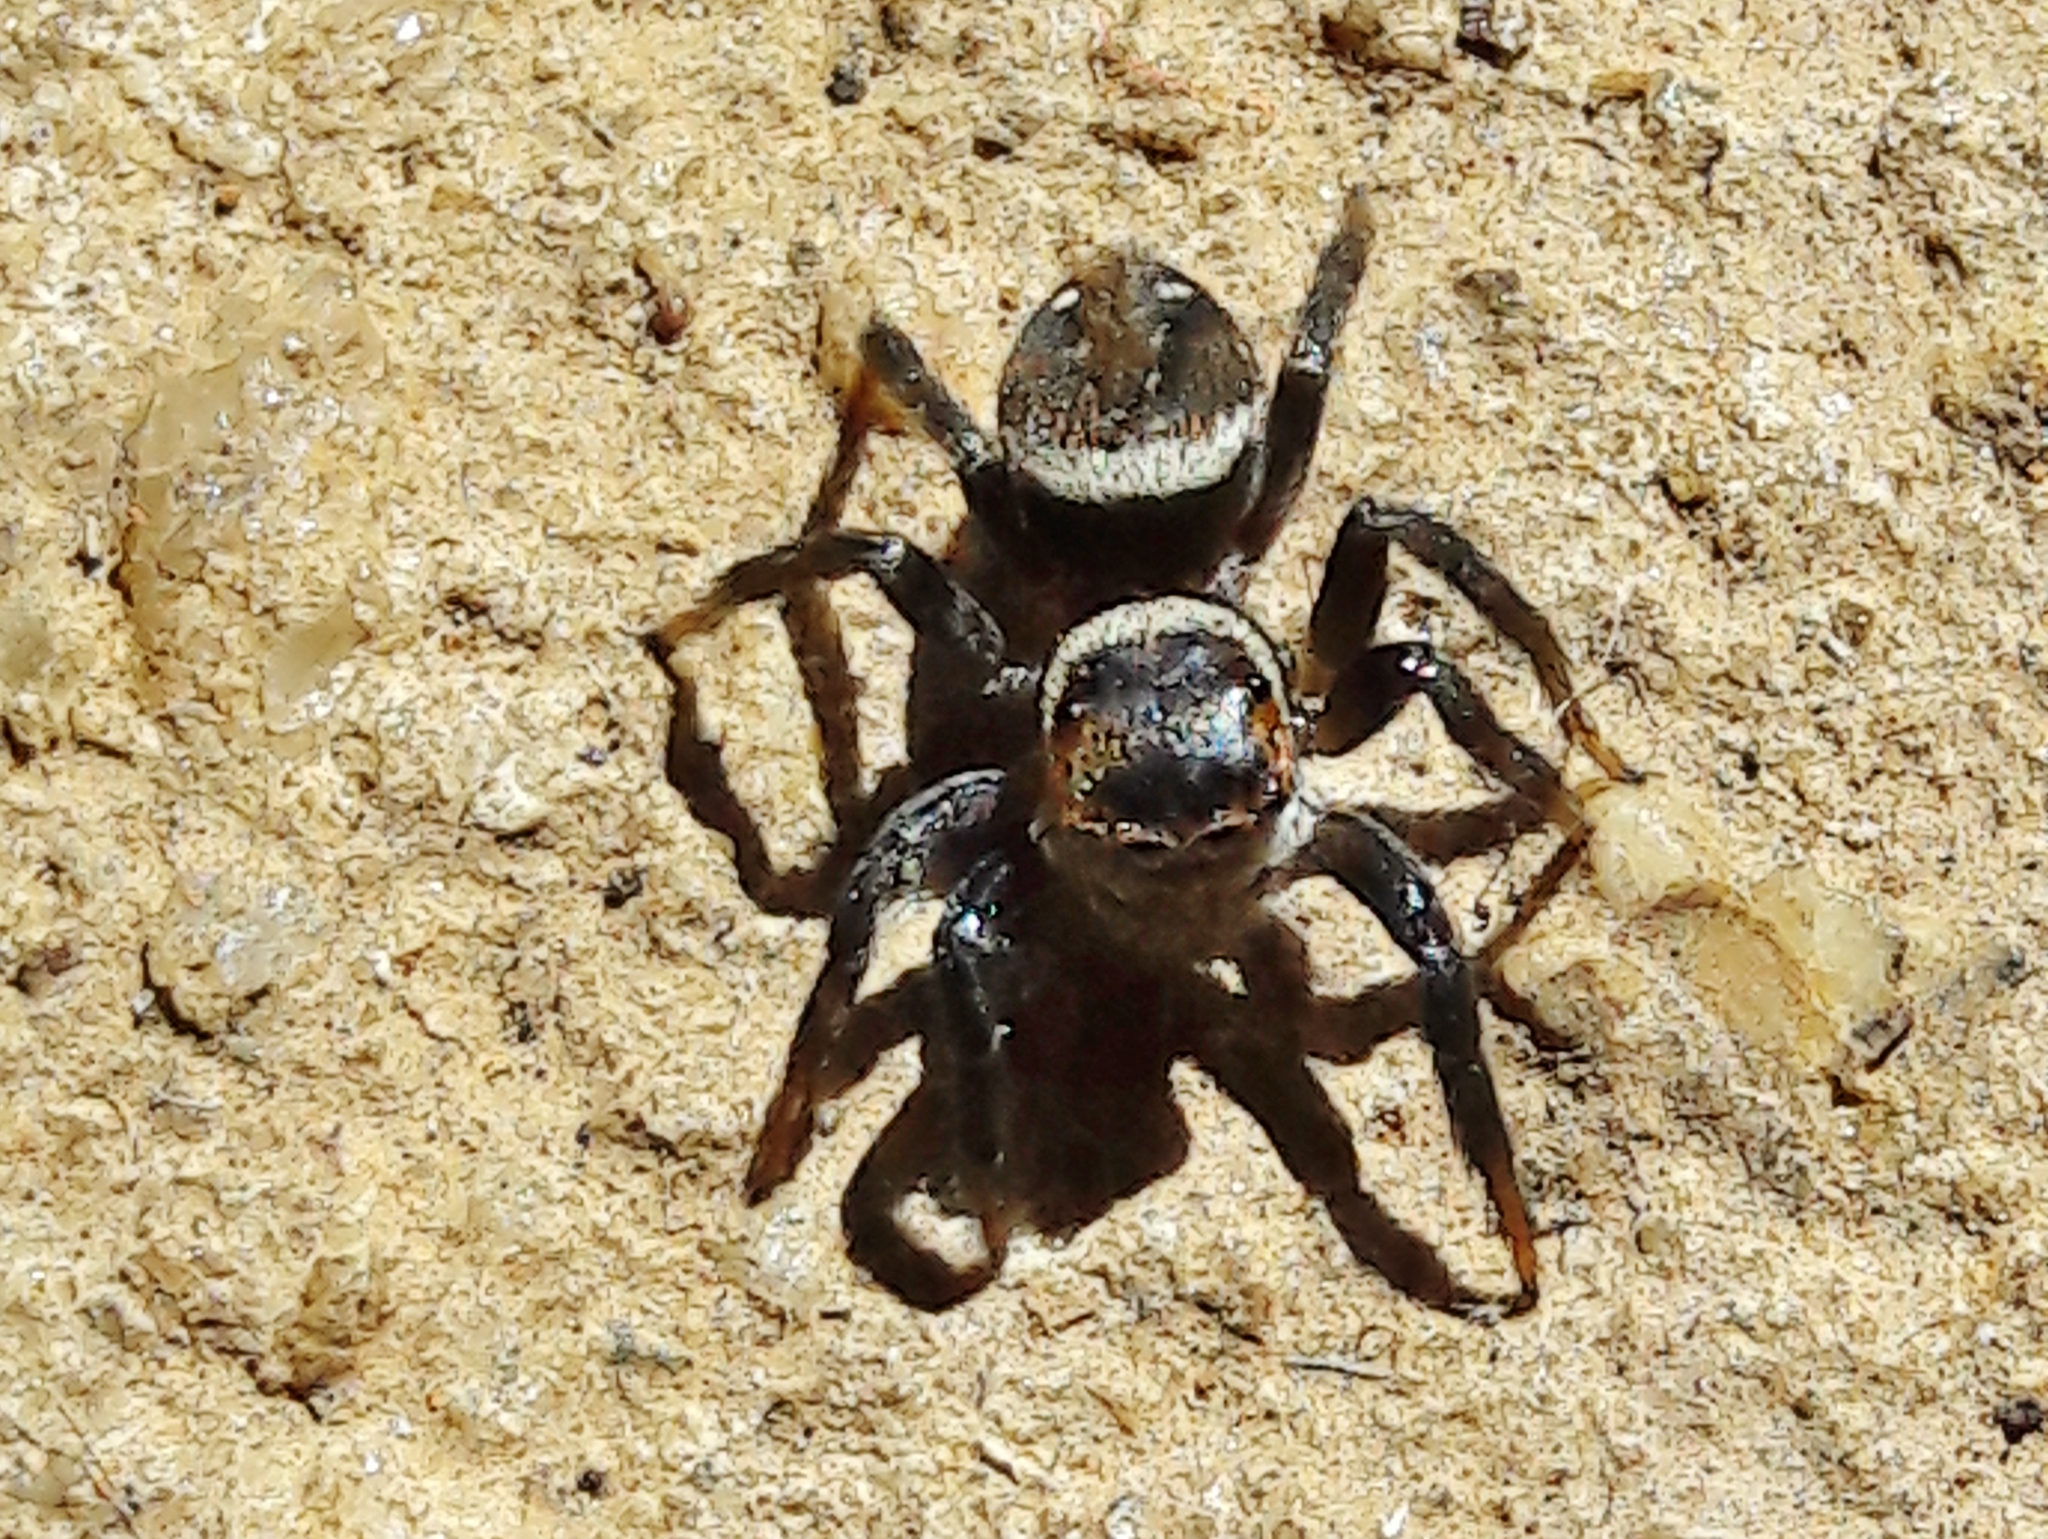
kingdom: Animalia
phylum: Arthropoda
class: Arachnida
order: Araneae
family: Salticidae
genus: Hasarius
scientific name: Hasarius adansoni
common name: Jumping spider
